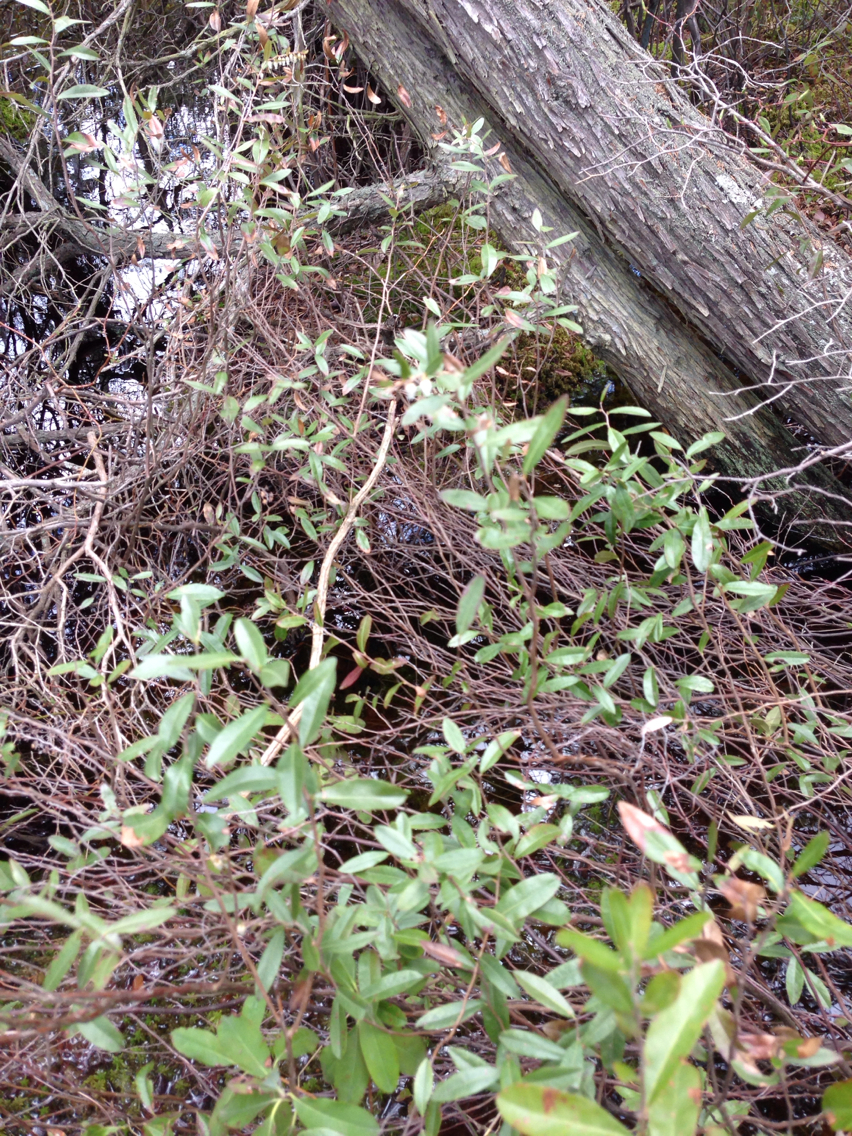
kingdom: Plantae
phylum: Tracheophyta
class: Magnoliopsida
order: Ericales
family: Ericaceae
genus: Chamaedaphne
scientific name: Chamaedaphne calyculata
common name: Leatherleaf
